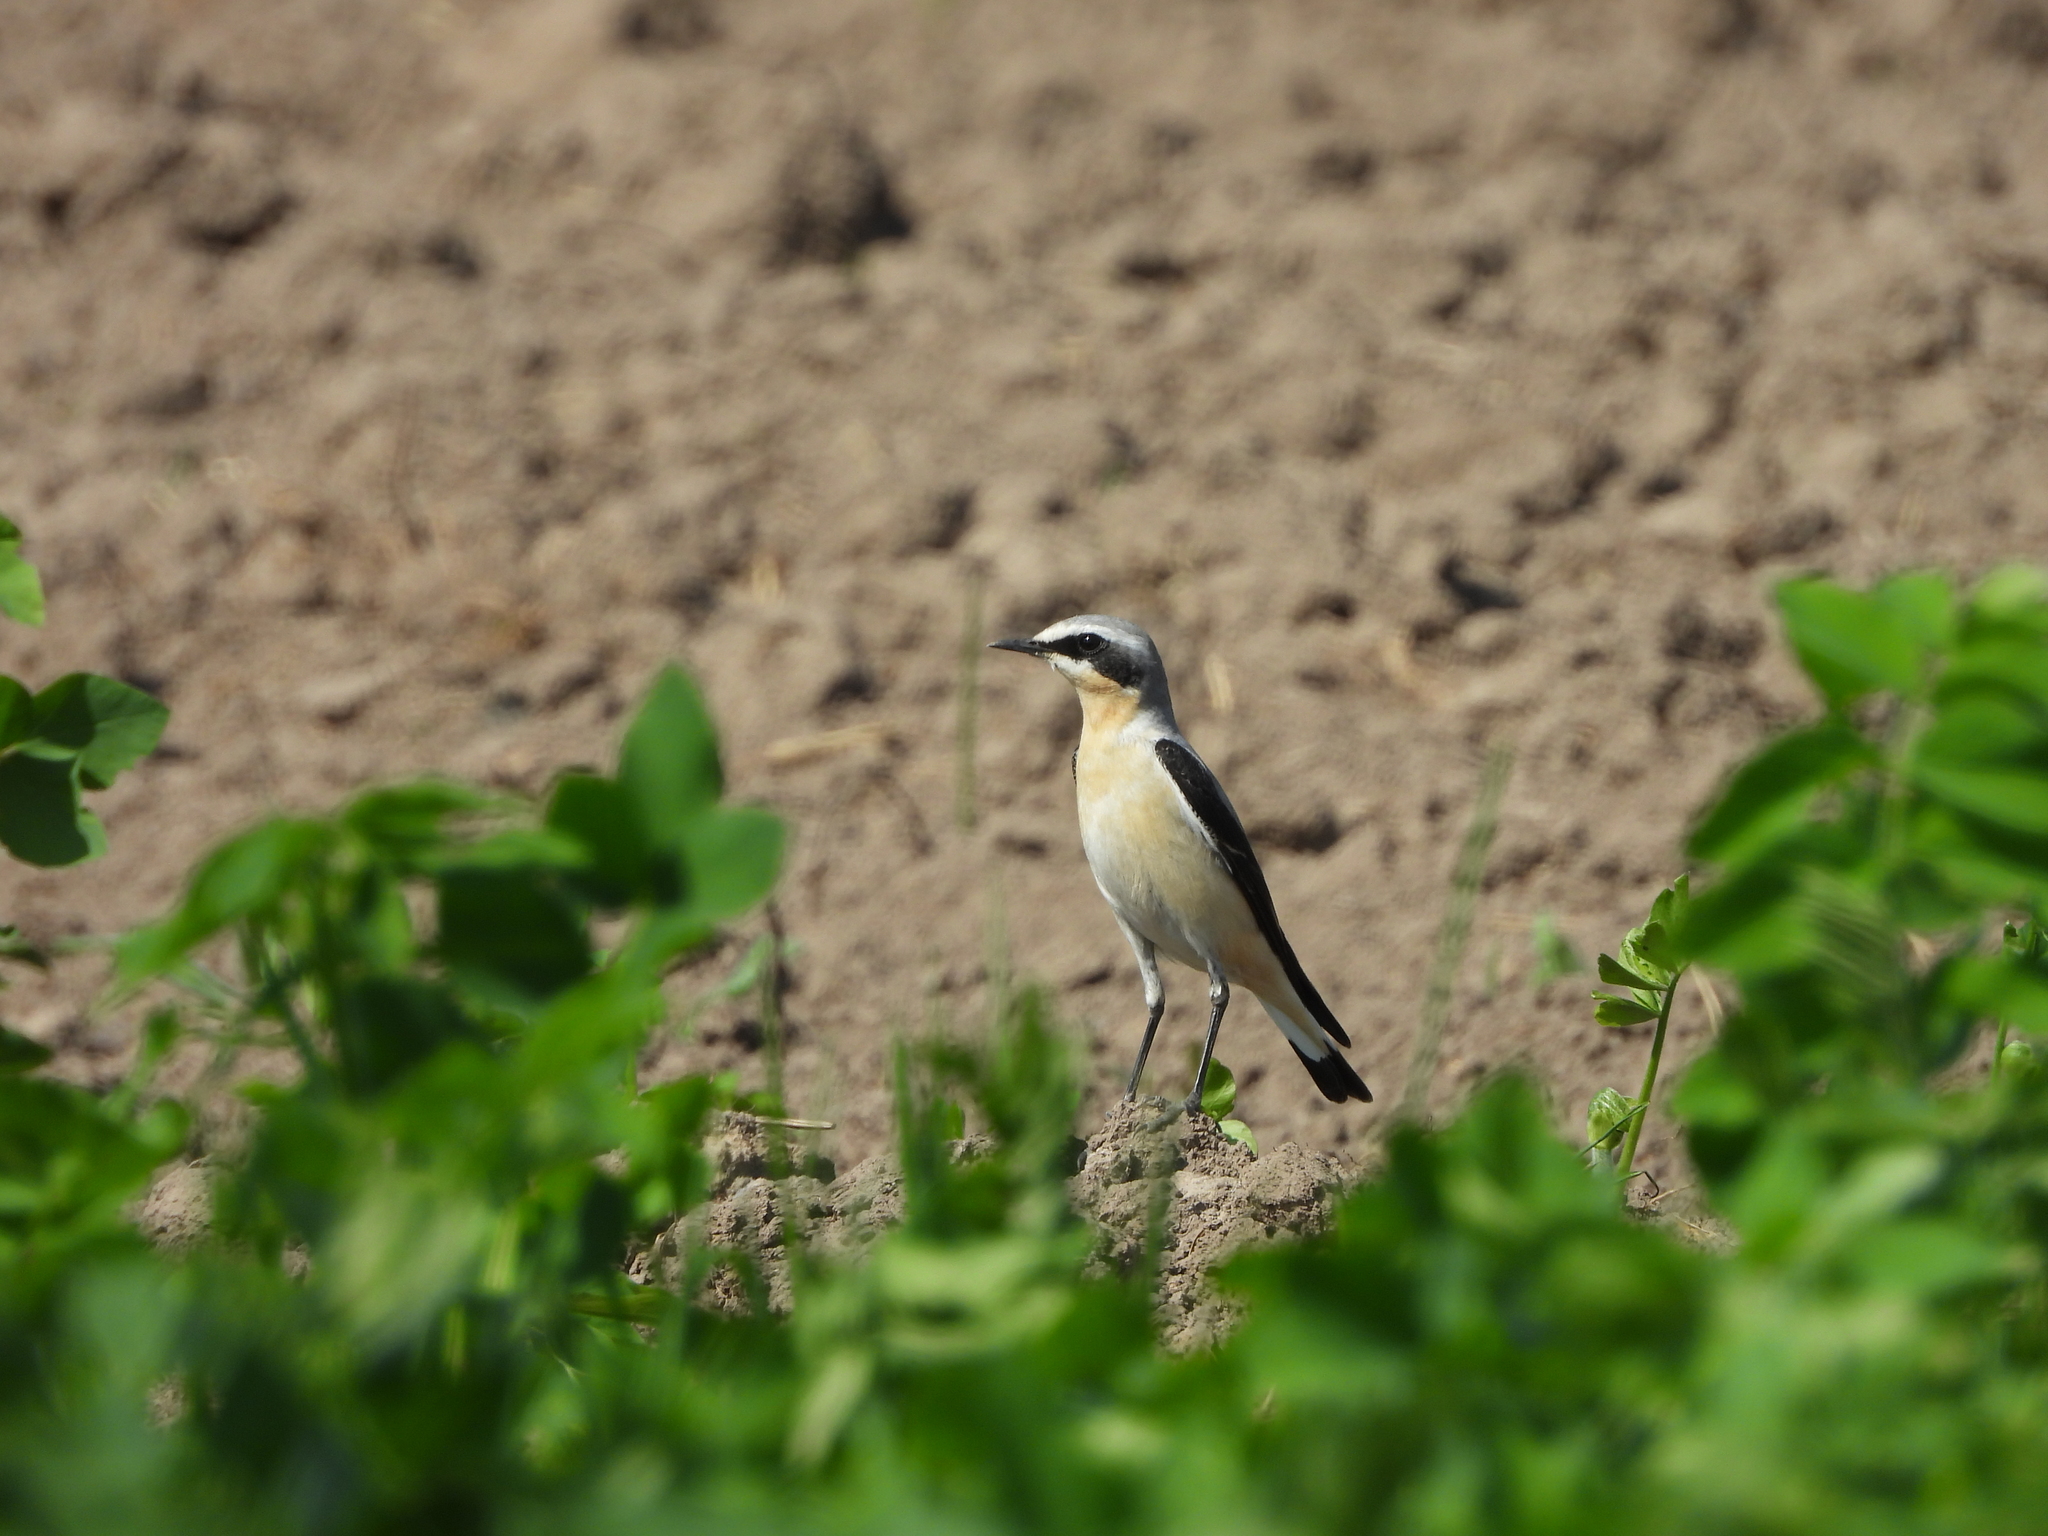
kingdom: Animalia
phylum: Chordata
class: Aves
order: Passeriformes
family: Muscicapidae
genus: Oenanthe
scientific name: Oenanthe oenanthe
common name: Northern wheatear
